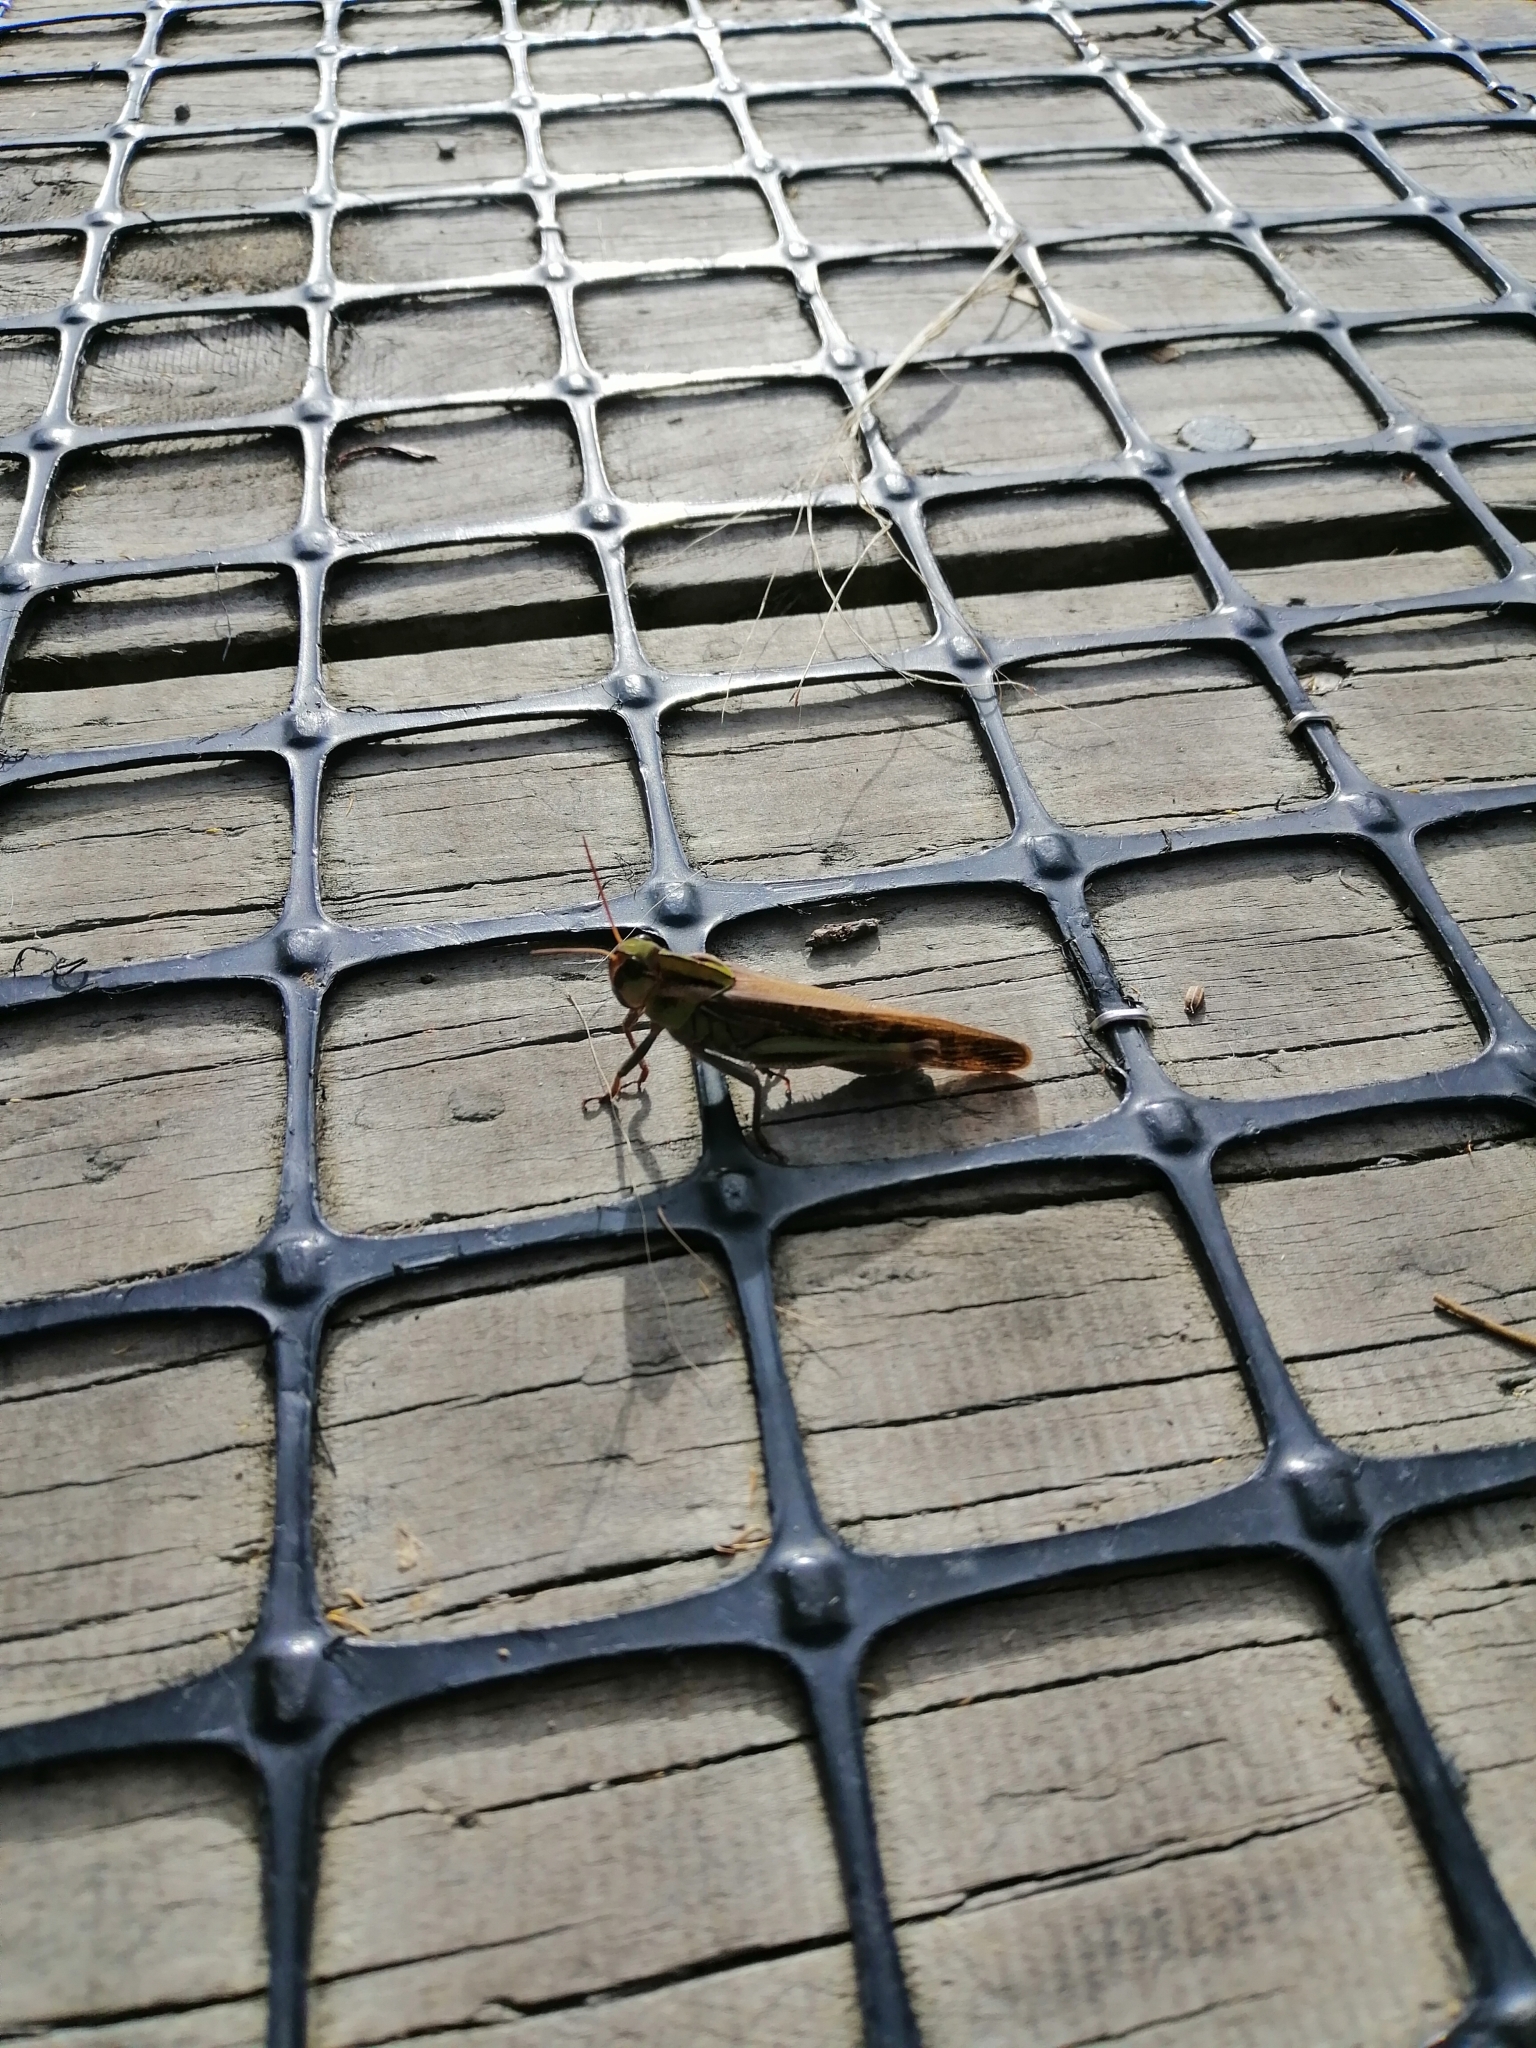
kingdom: Animalia
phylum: Arthropoda
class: Insecta
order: Orthoptera
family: Acrididae
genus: Locusta
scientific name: Locusta migratoria
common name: Migratory locust
